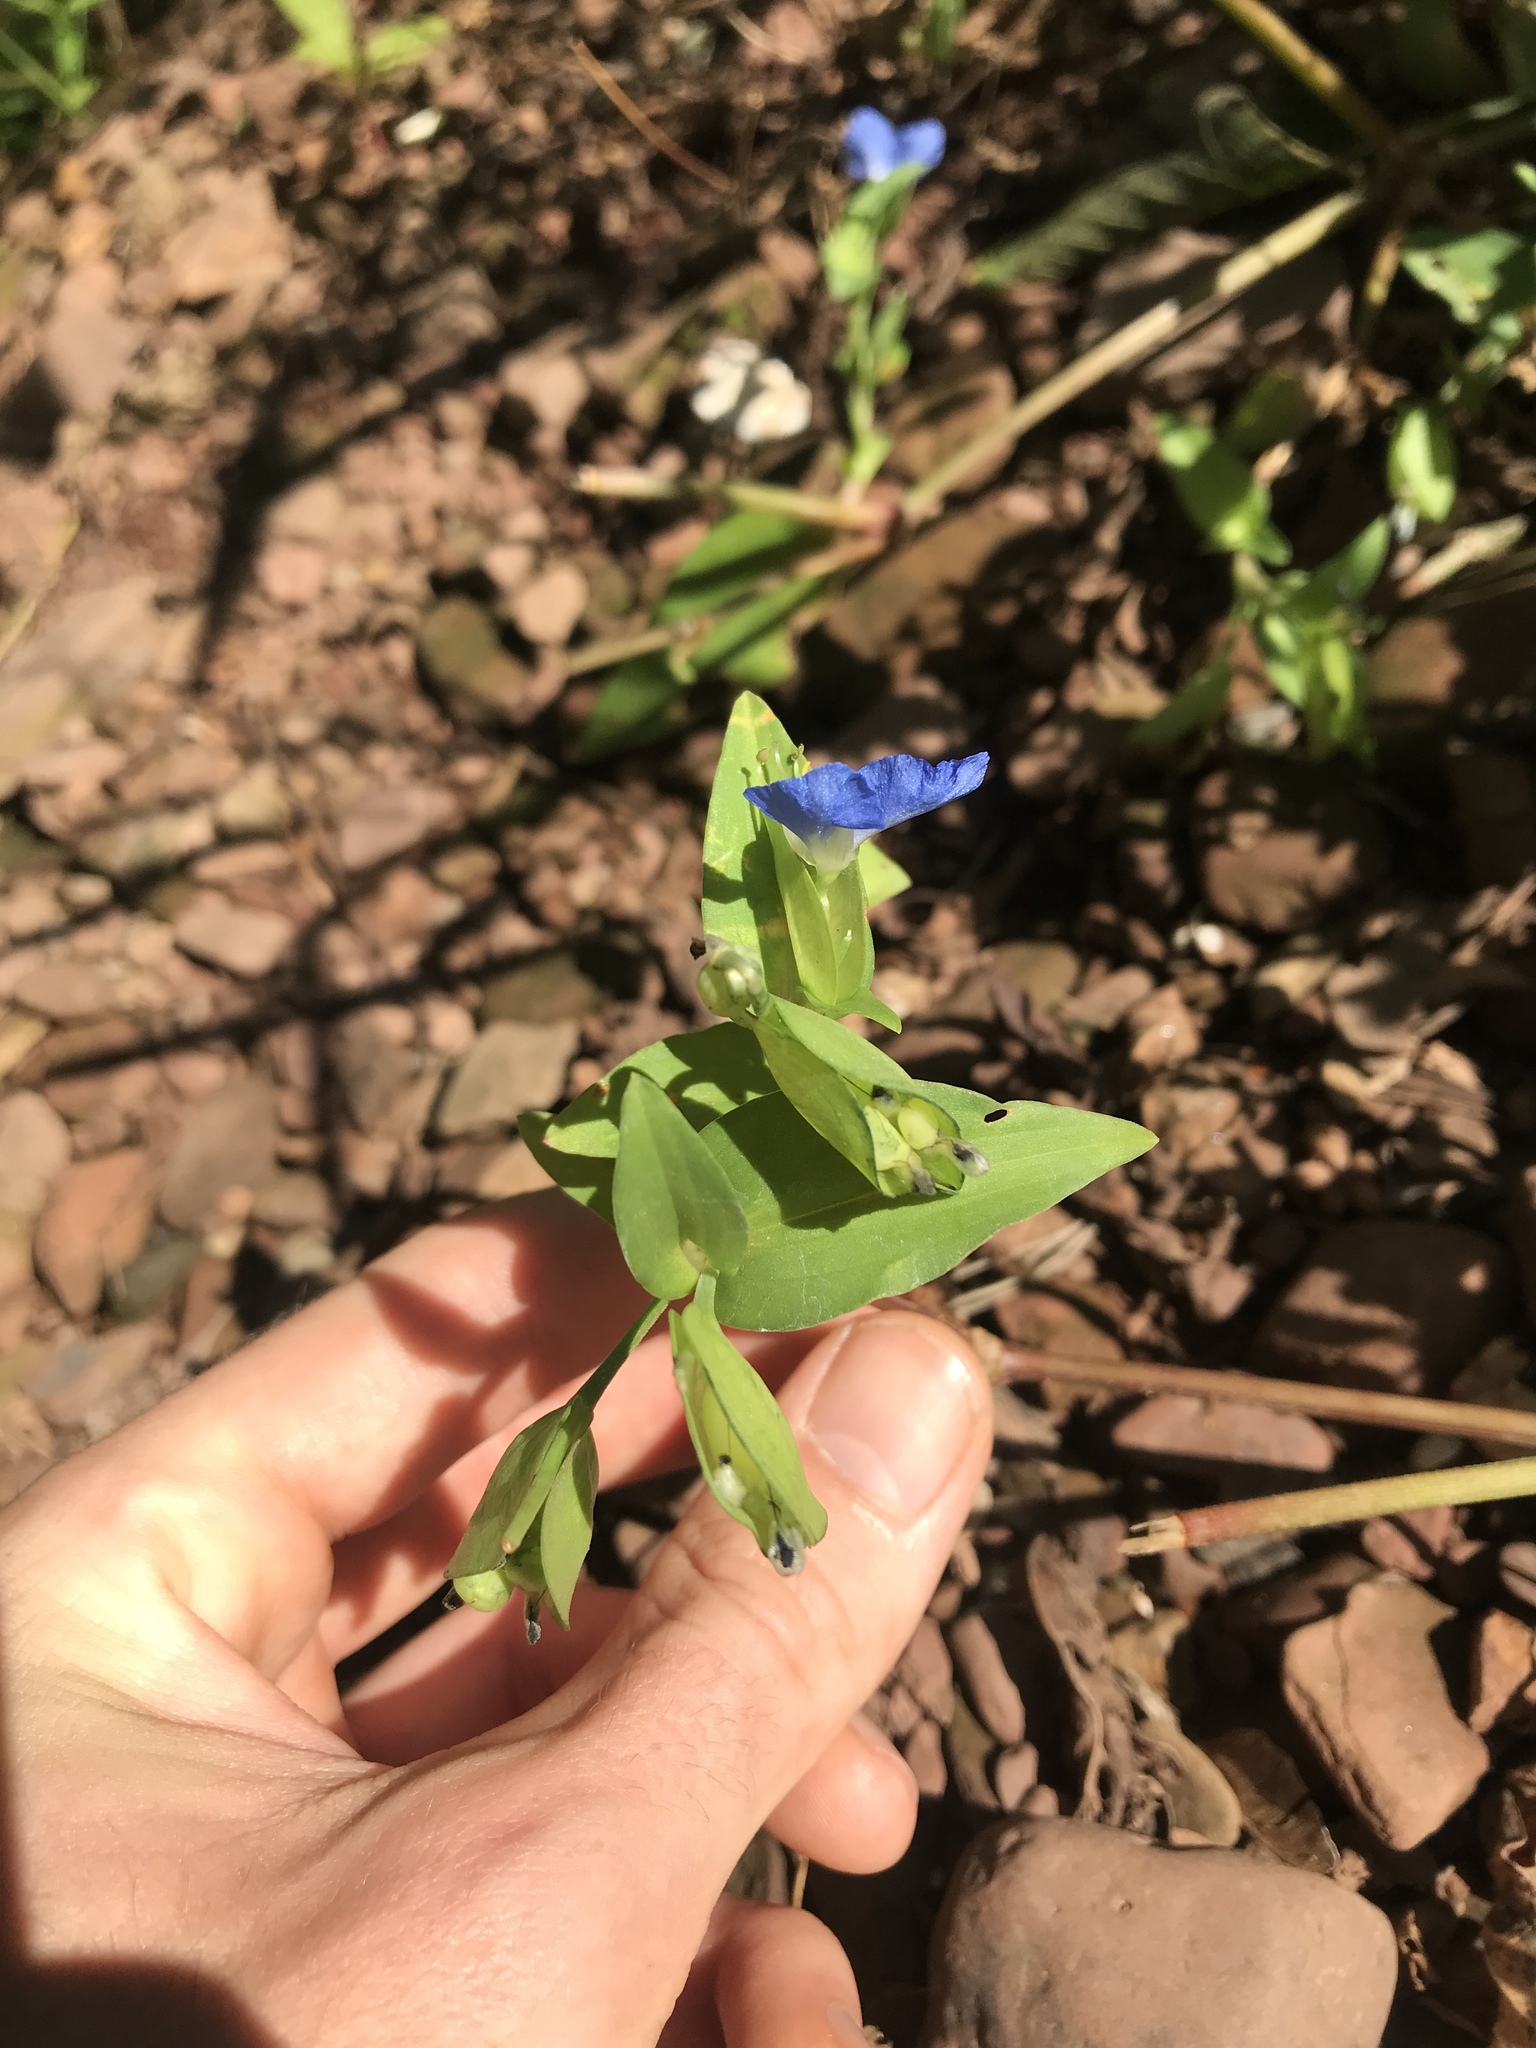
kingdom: Plantae
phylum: Tracheophyta
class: Liliopsida
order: Commelinales
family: Commelinaceae
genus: Commelina
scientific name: Commelina communis
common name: Asiatic dayflower
